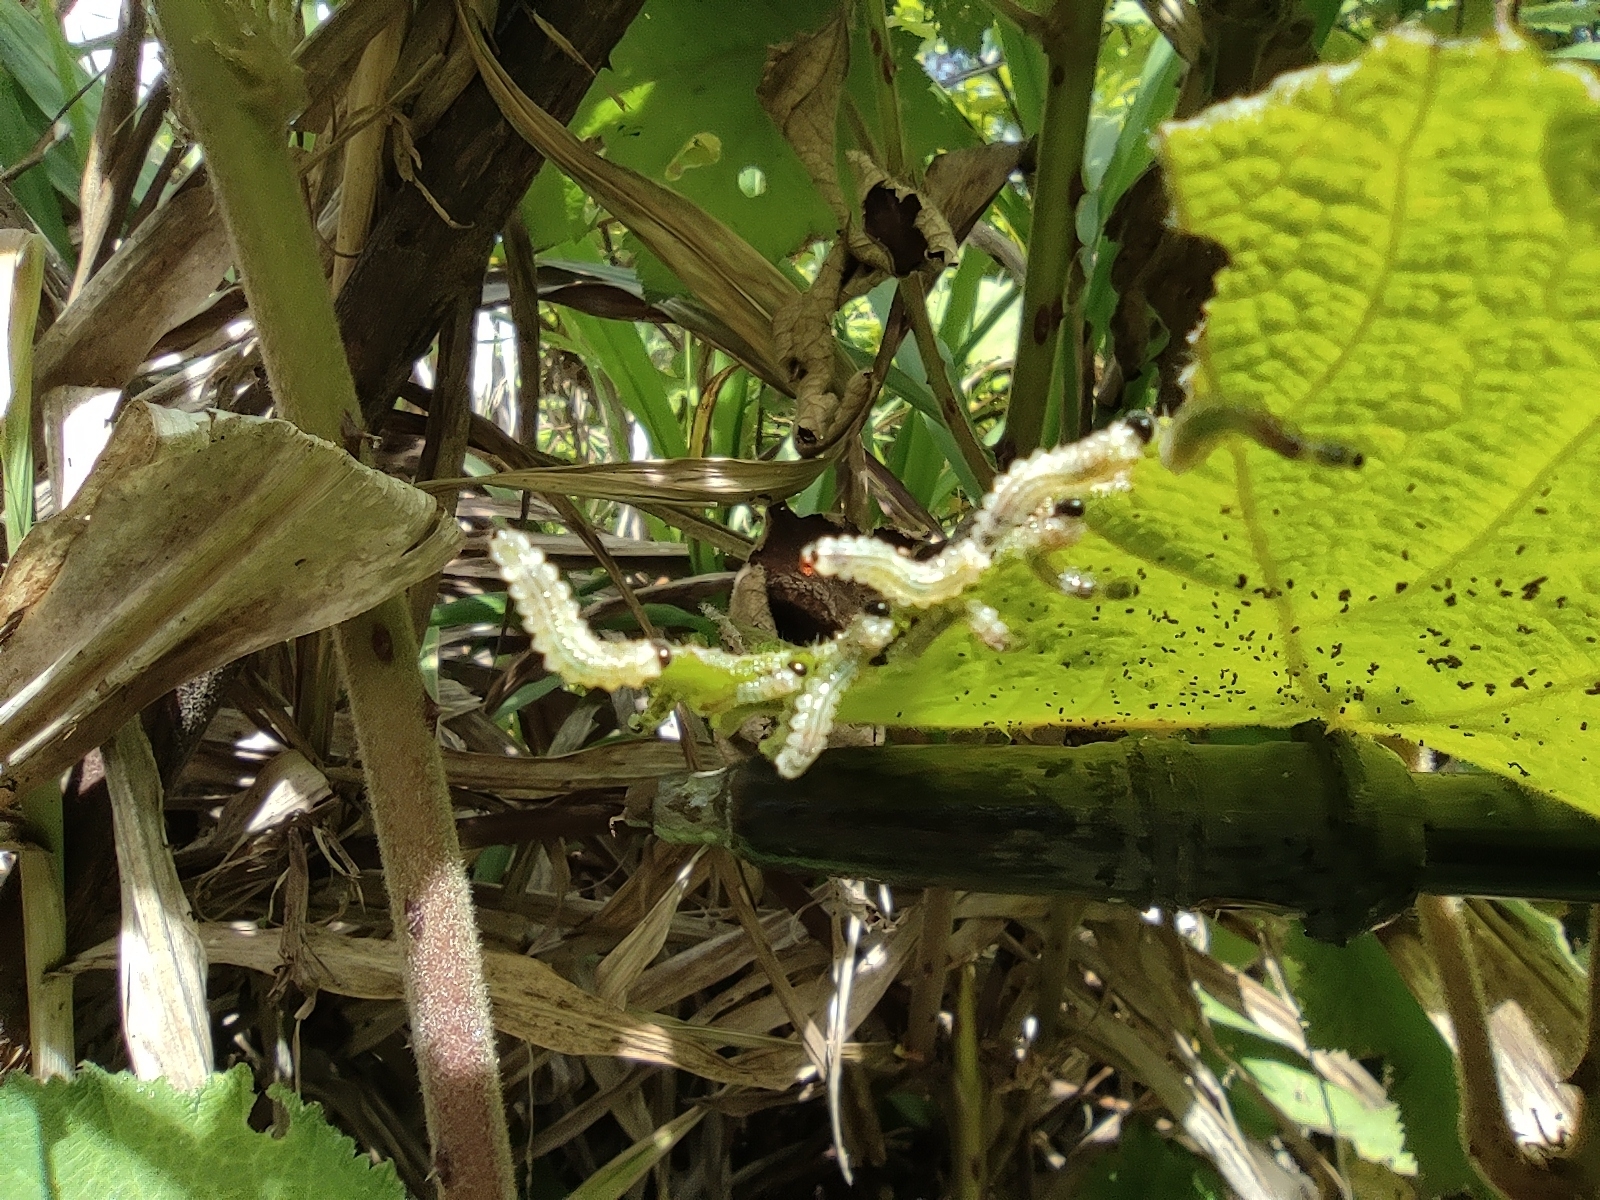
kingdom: Animalia
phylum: Arthropoda
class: Insecta
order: Hymenoptera
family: Argidae
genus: Cibdela
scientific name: Cibdela janthina
